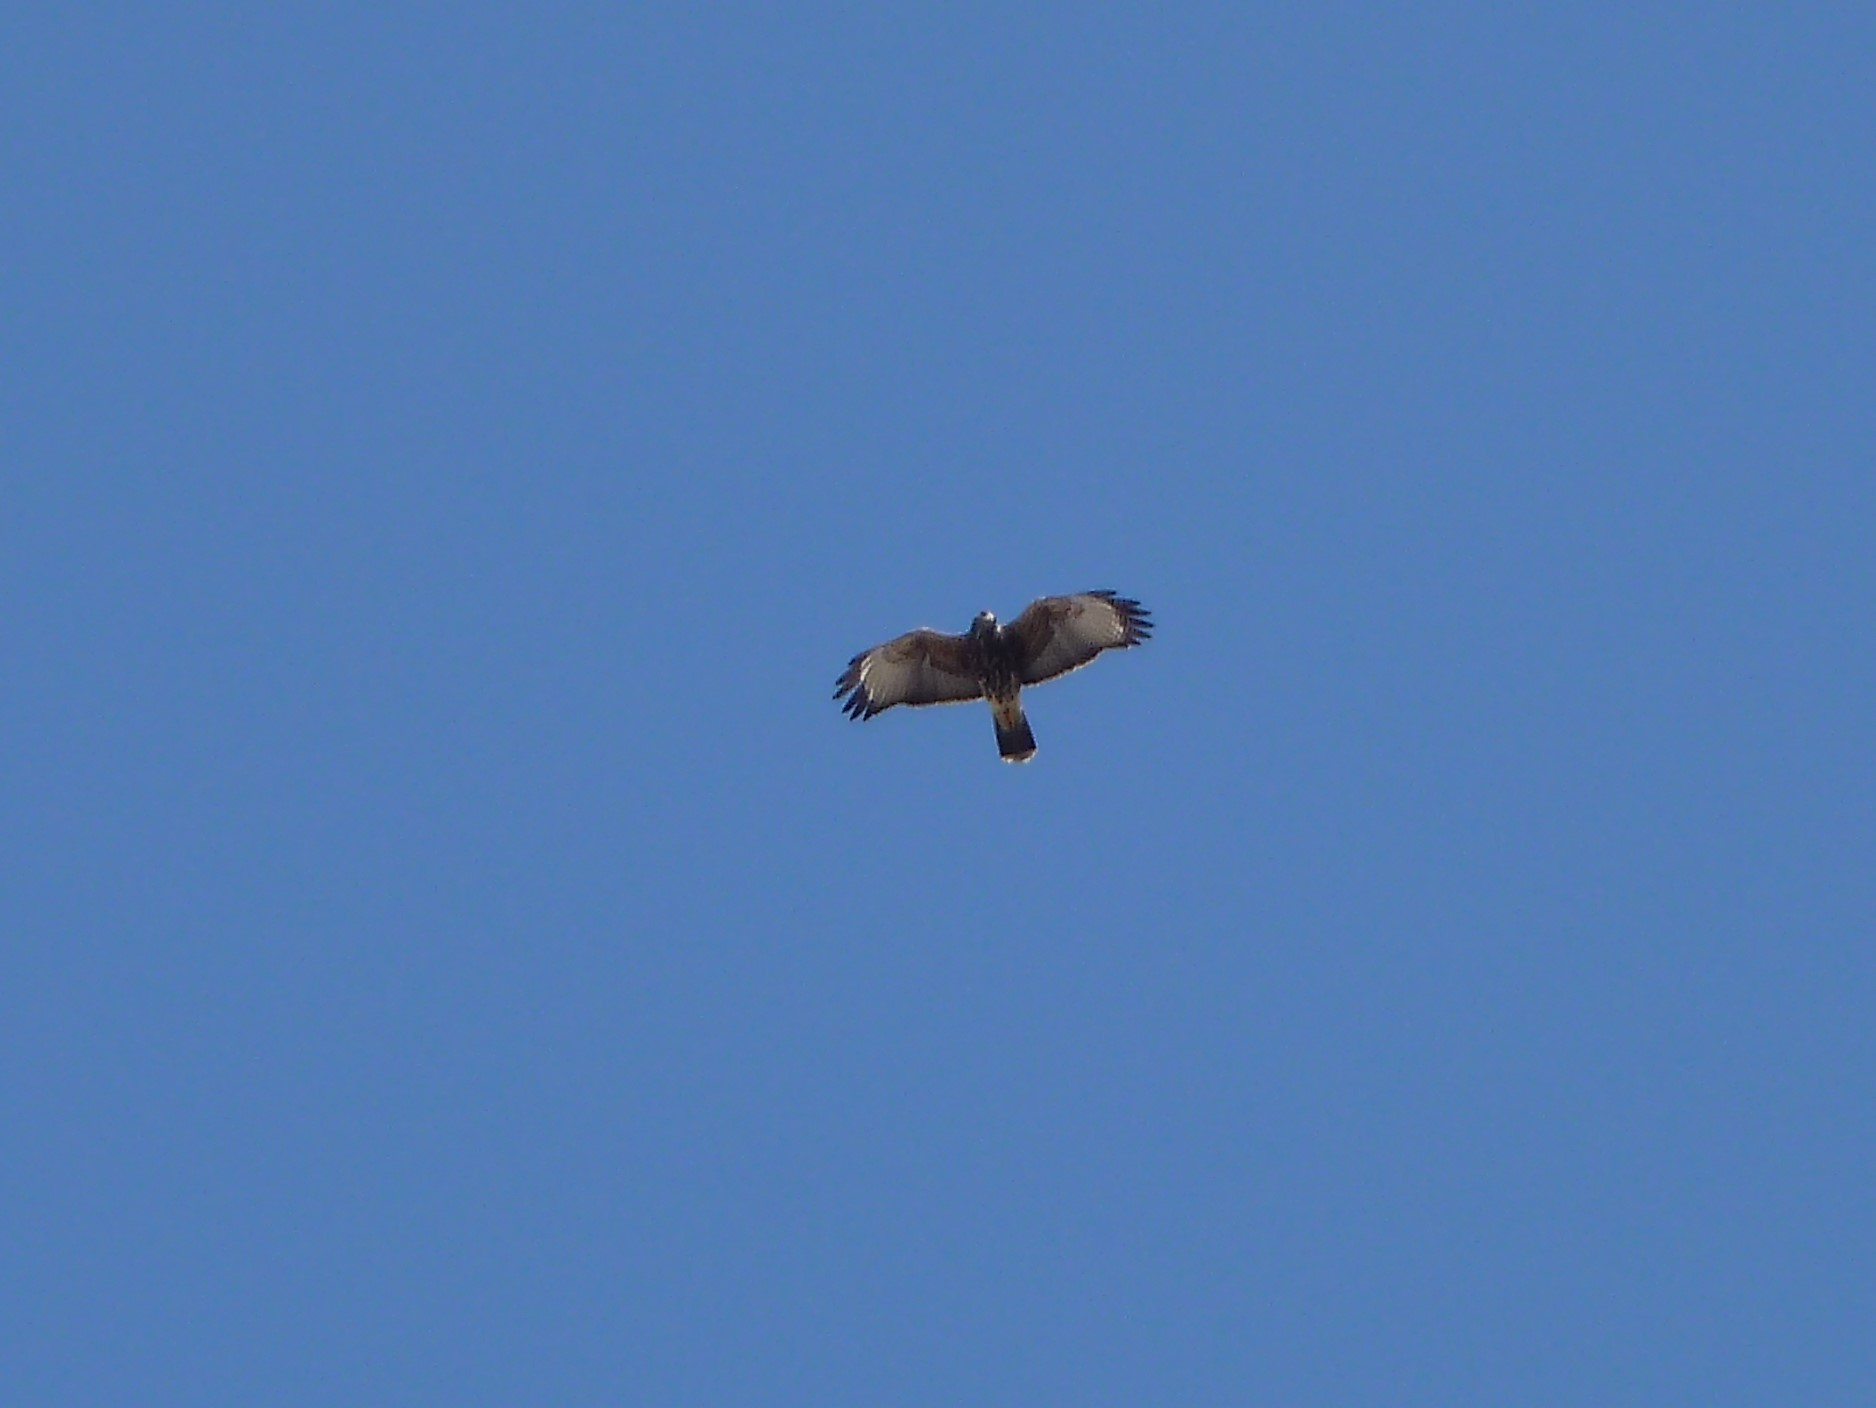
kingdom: Animalia
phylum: Chordata
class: Aves
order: Accipitriformes
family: Accipitridae
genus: Parabuteo
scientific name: Parabuteo unicinctus
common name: Harris's hawk
